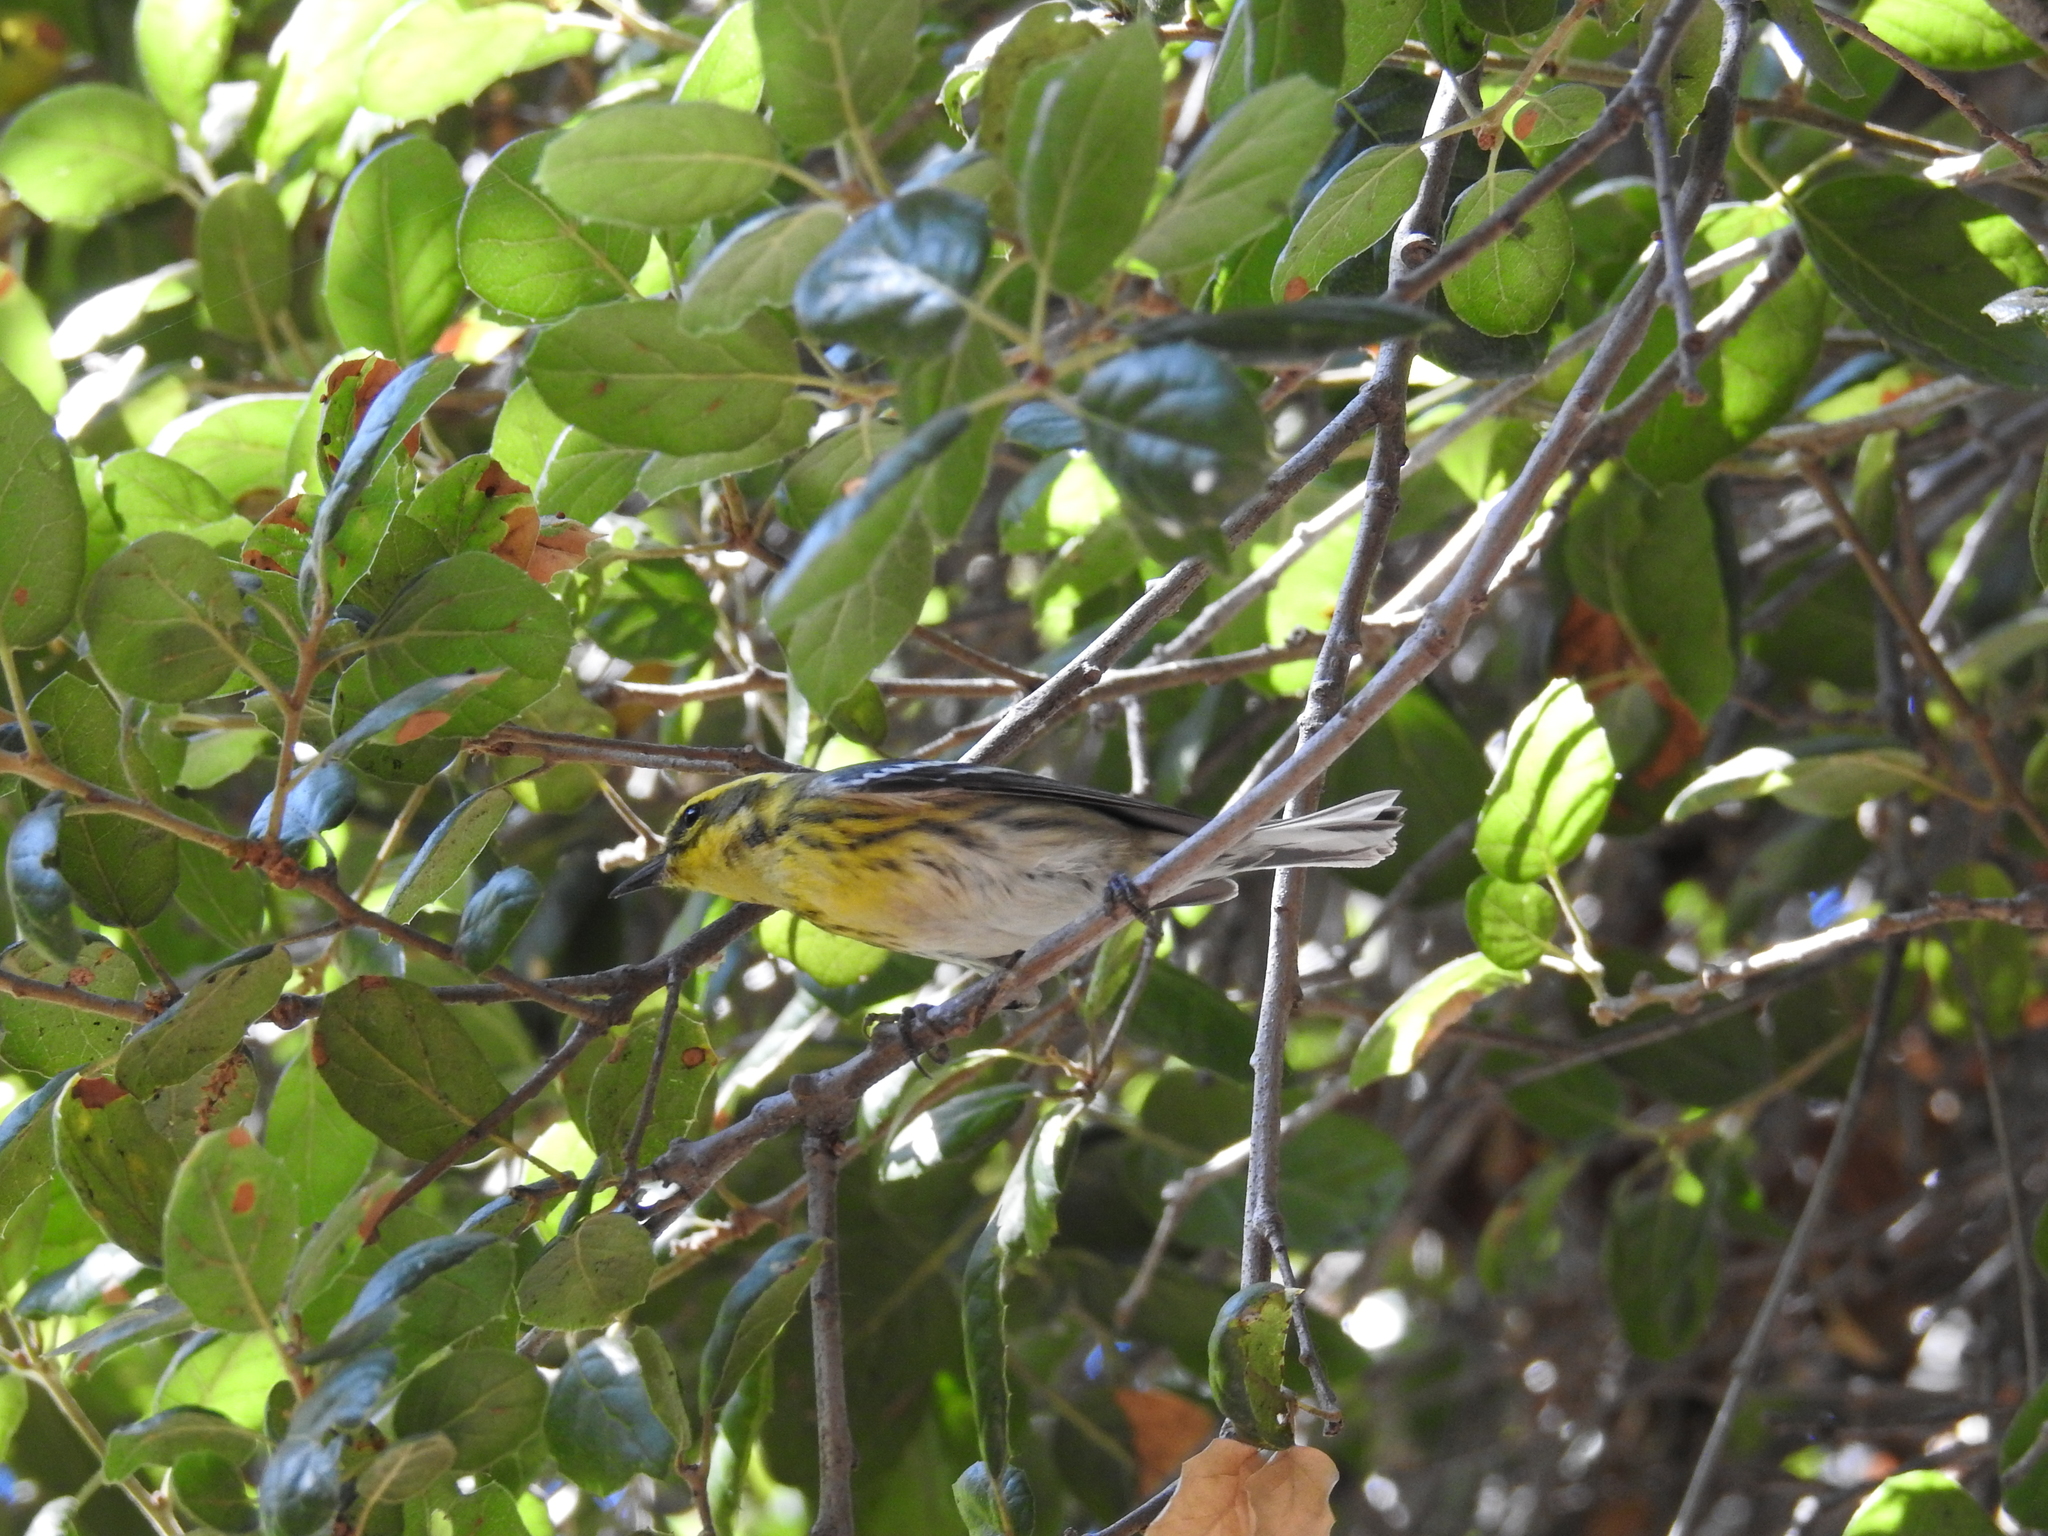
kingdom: Animalia
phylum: Chordata
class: Aves
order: Passeriformes
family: Parulidae
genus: Setophaga
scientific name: Setophaga townsendi
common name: Townsend's warbler
